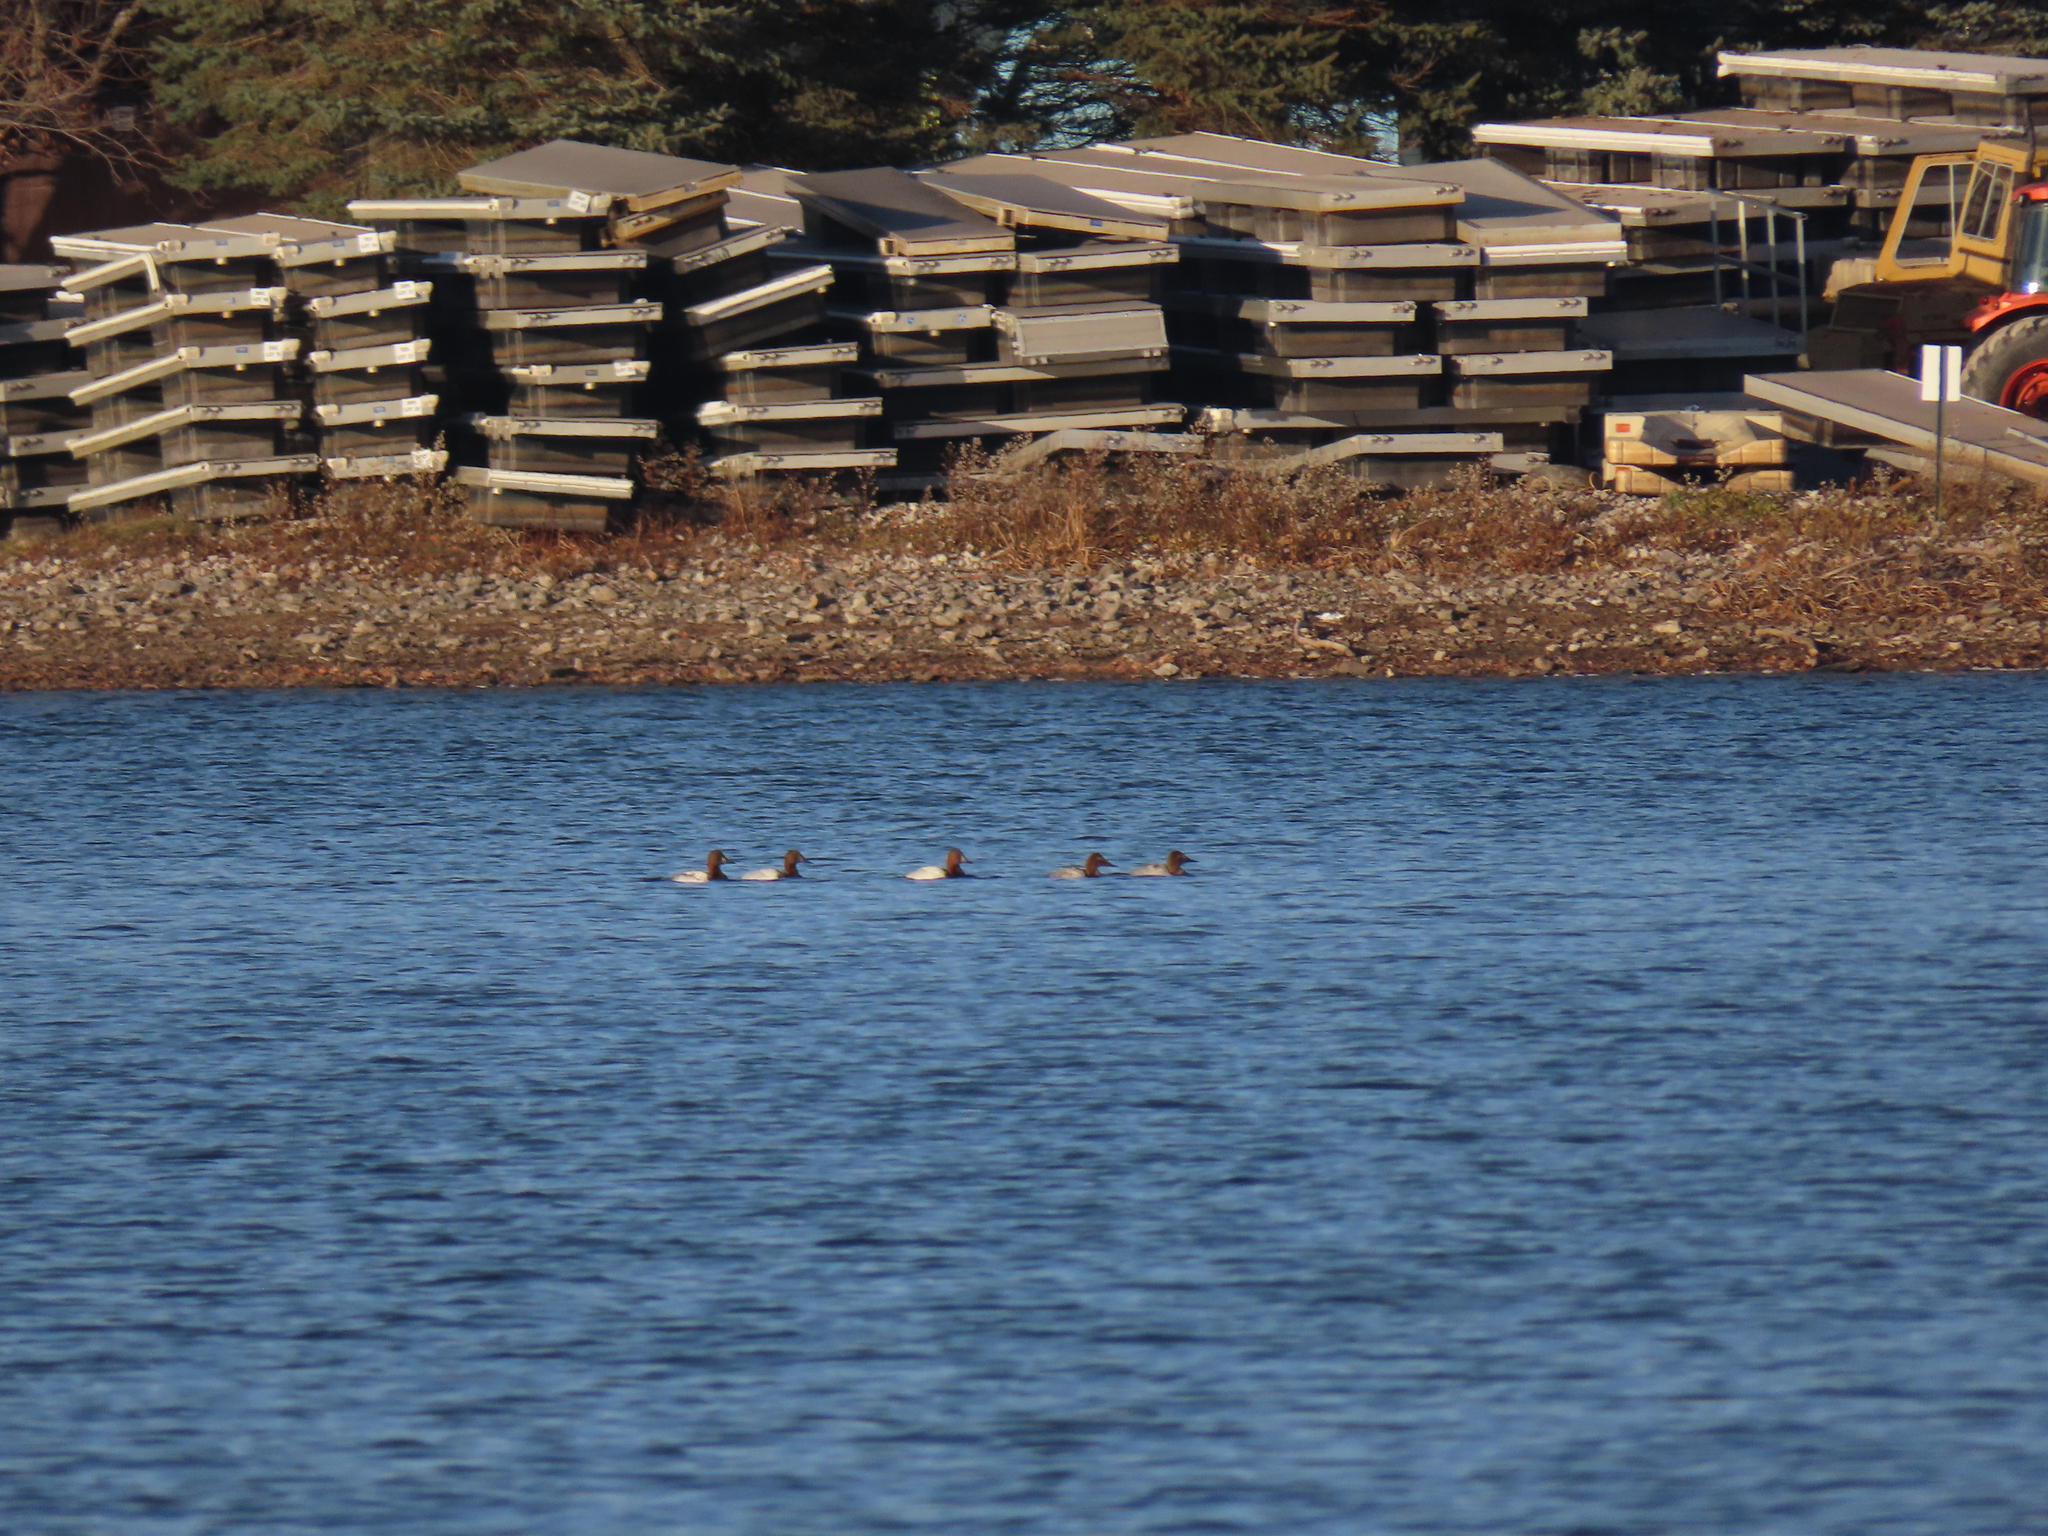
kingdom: Animalia
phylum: Chordata
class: Aves
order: Anseriformes
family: Anatidae
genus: Aythya
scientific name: Aythya valisineria
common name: Canvasback
